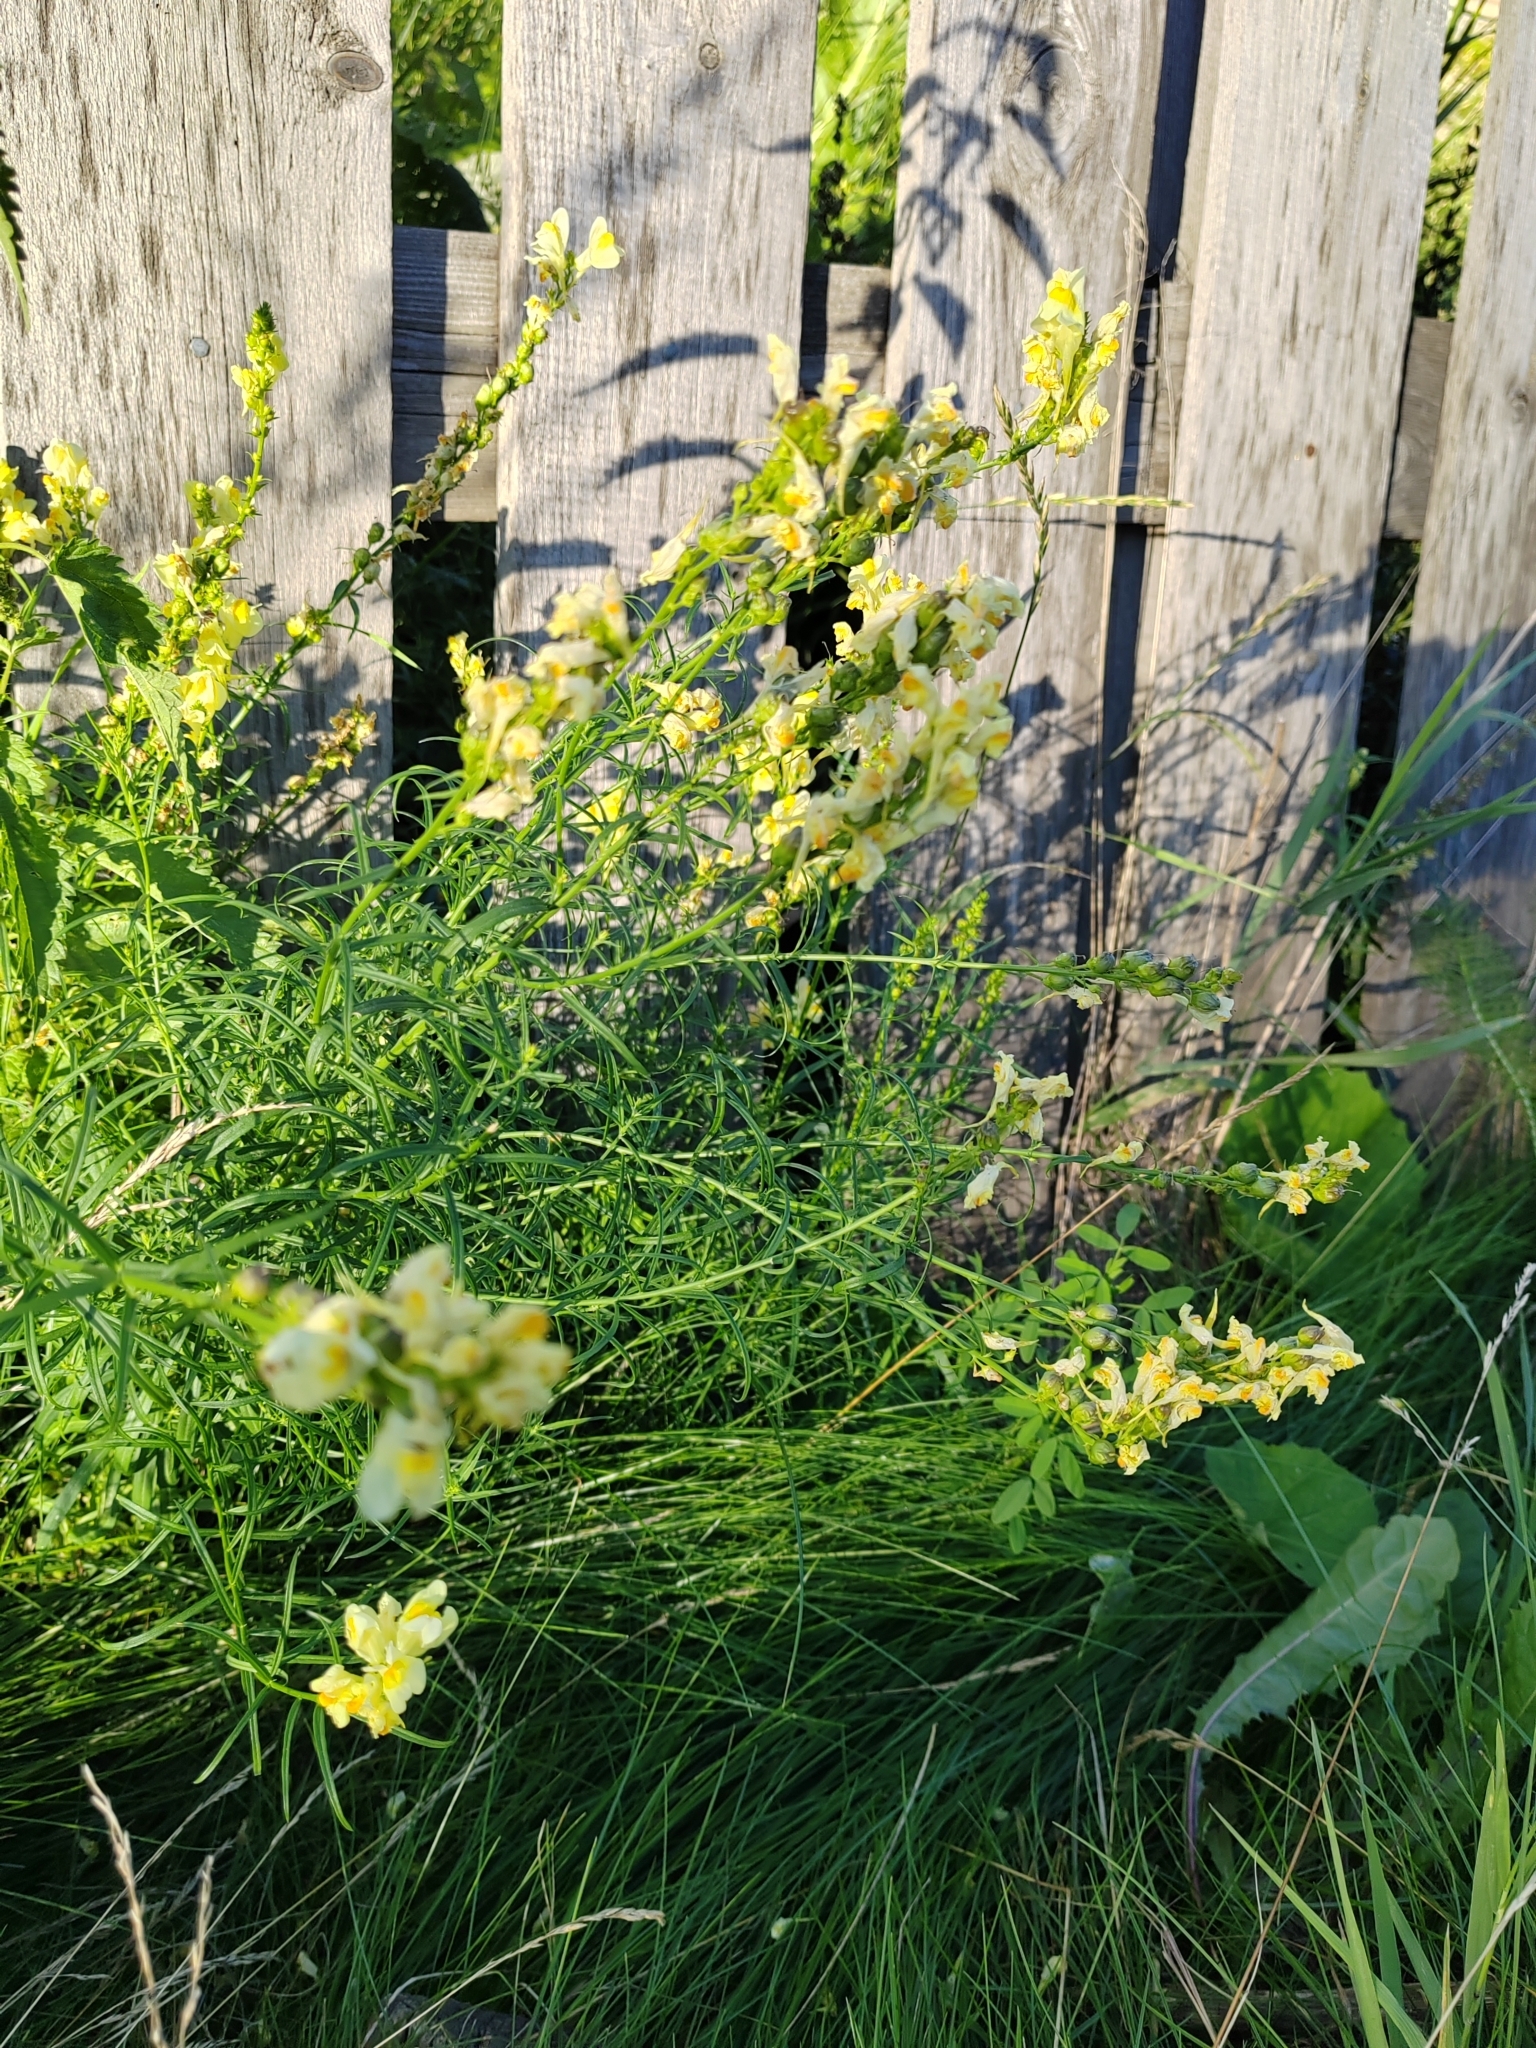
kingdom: Plantae
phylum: Tracheophyta
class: Magnoliopsida
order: Lamiales
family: Plantaginaceae
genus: Linaria
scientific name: Linaria vulgaris
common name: Butter and eggs
